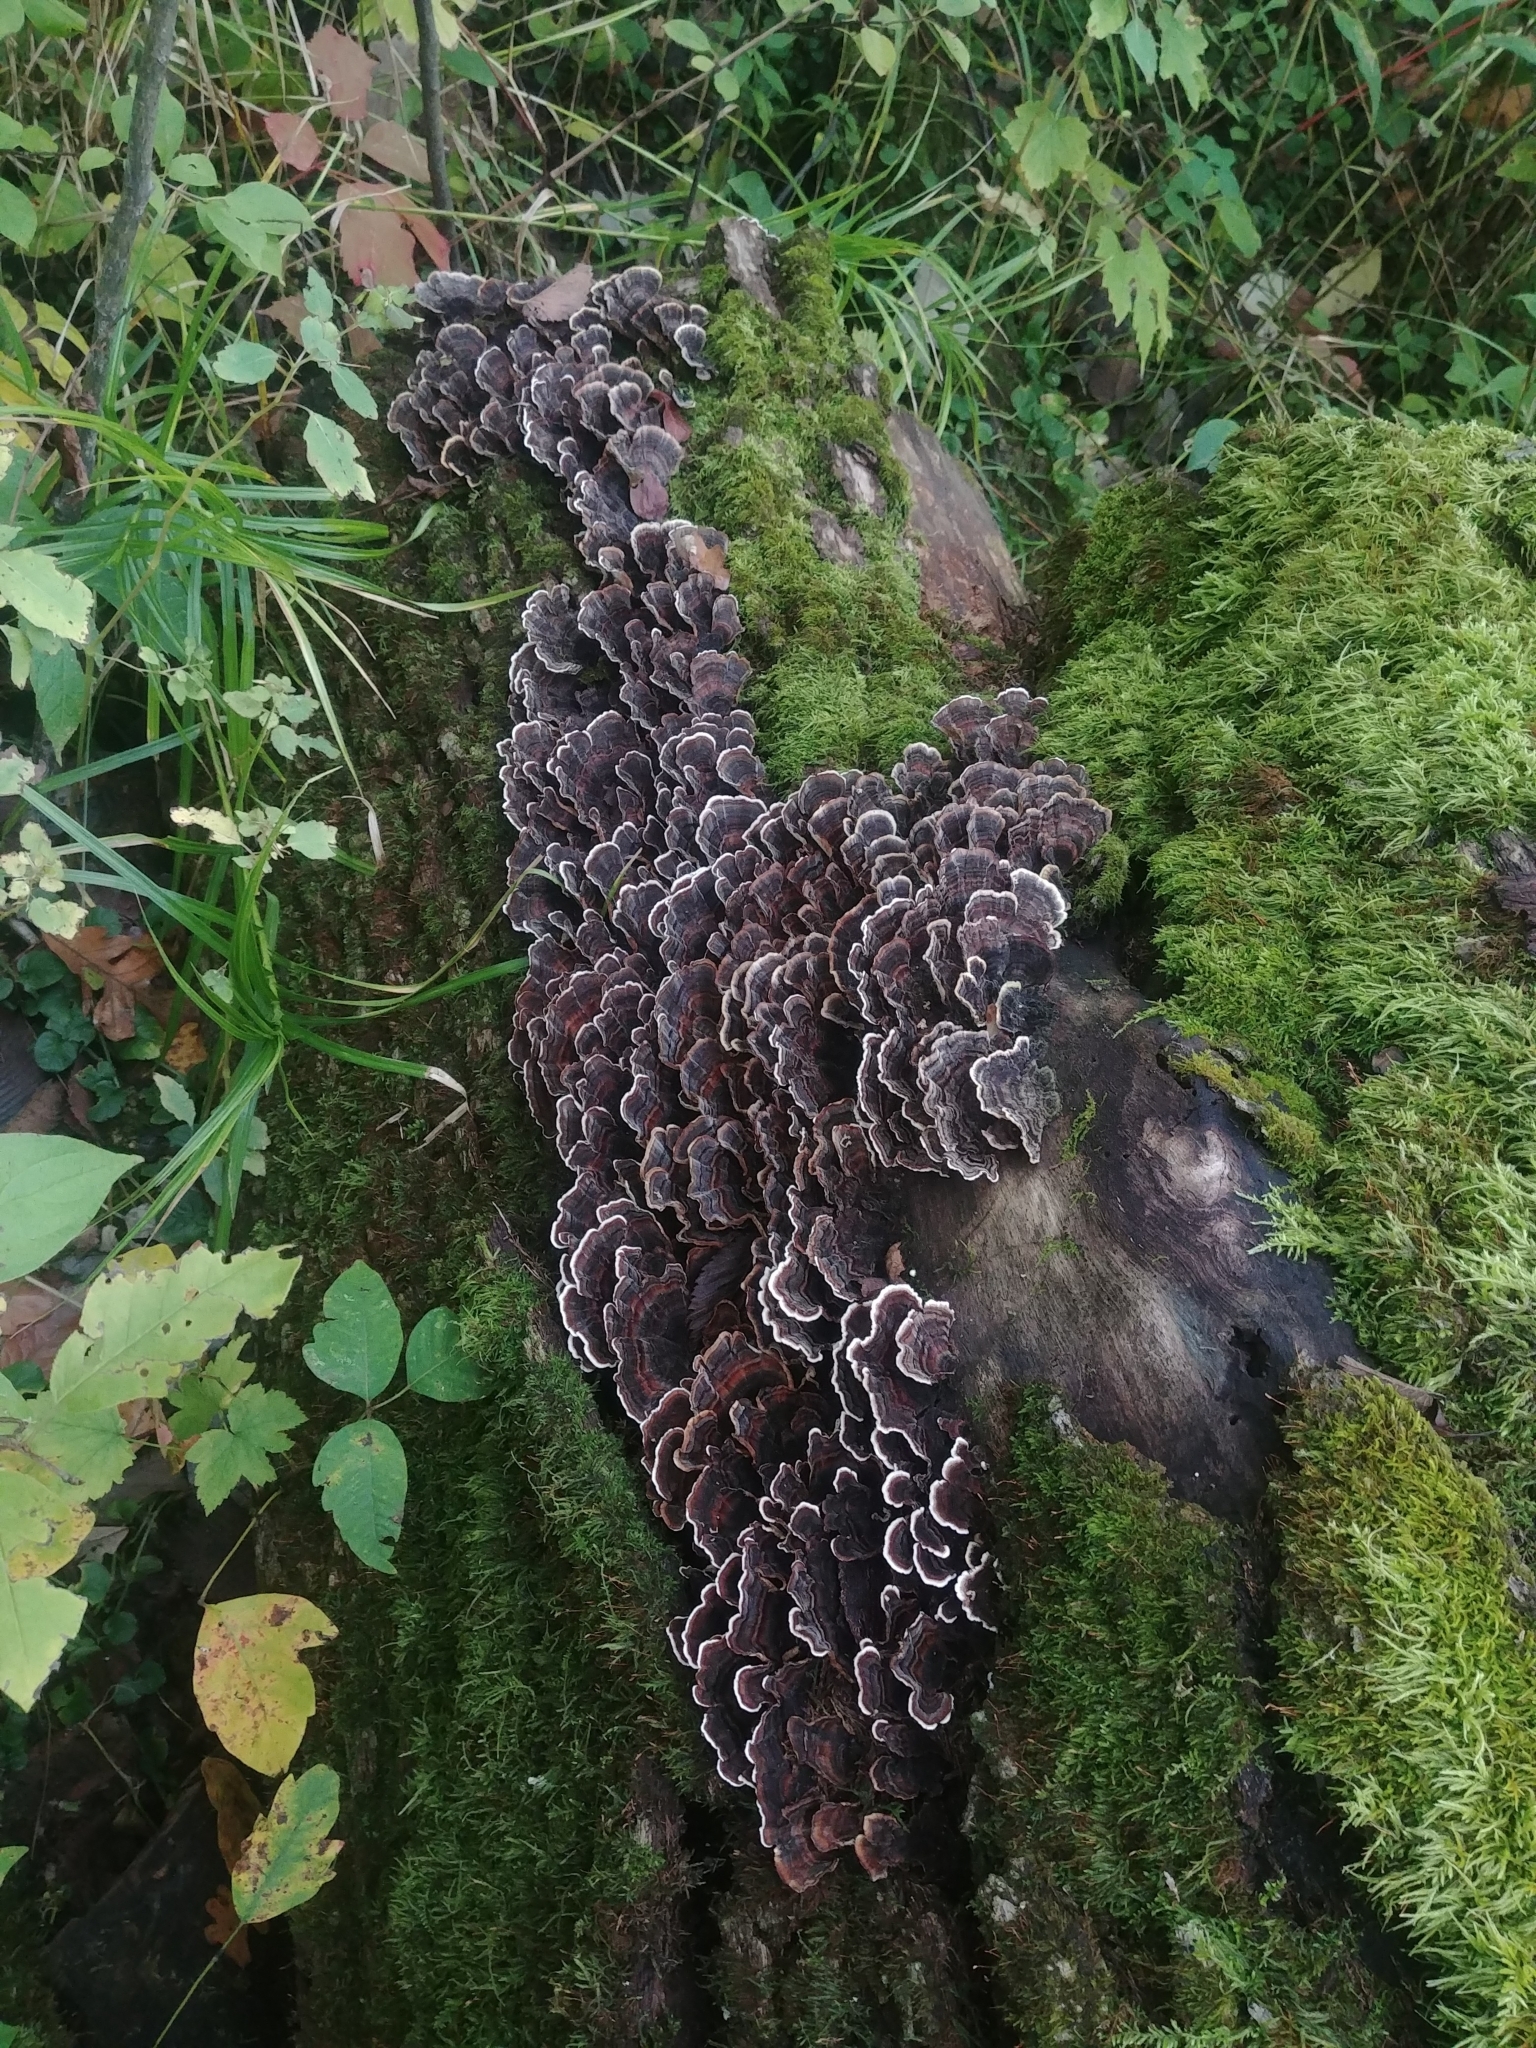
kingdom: Fungi
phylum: Basidiomycota
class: Agaricomycetes
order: Polyporales
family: Polyporaceae
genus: Trametes
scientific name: Trametes versicolor
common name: Turkeytail
